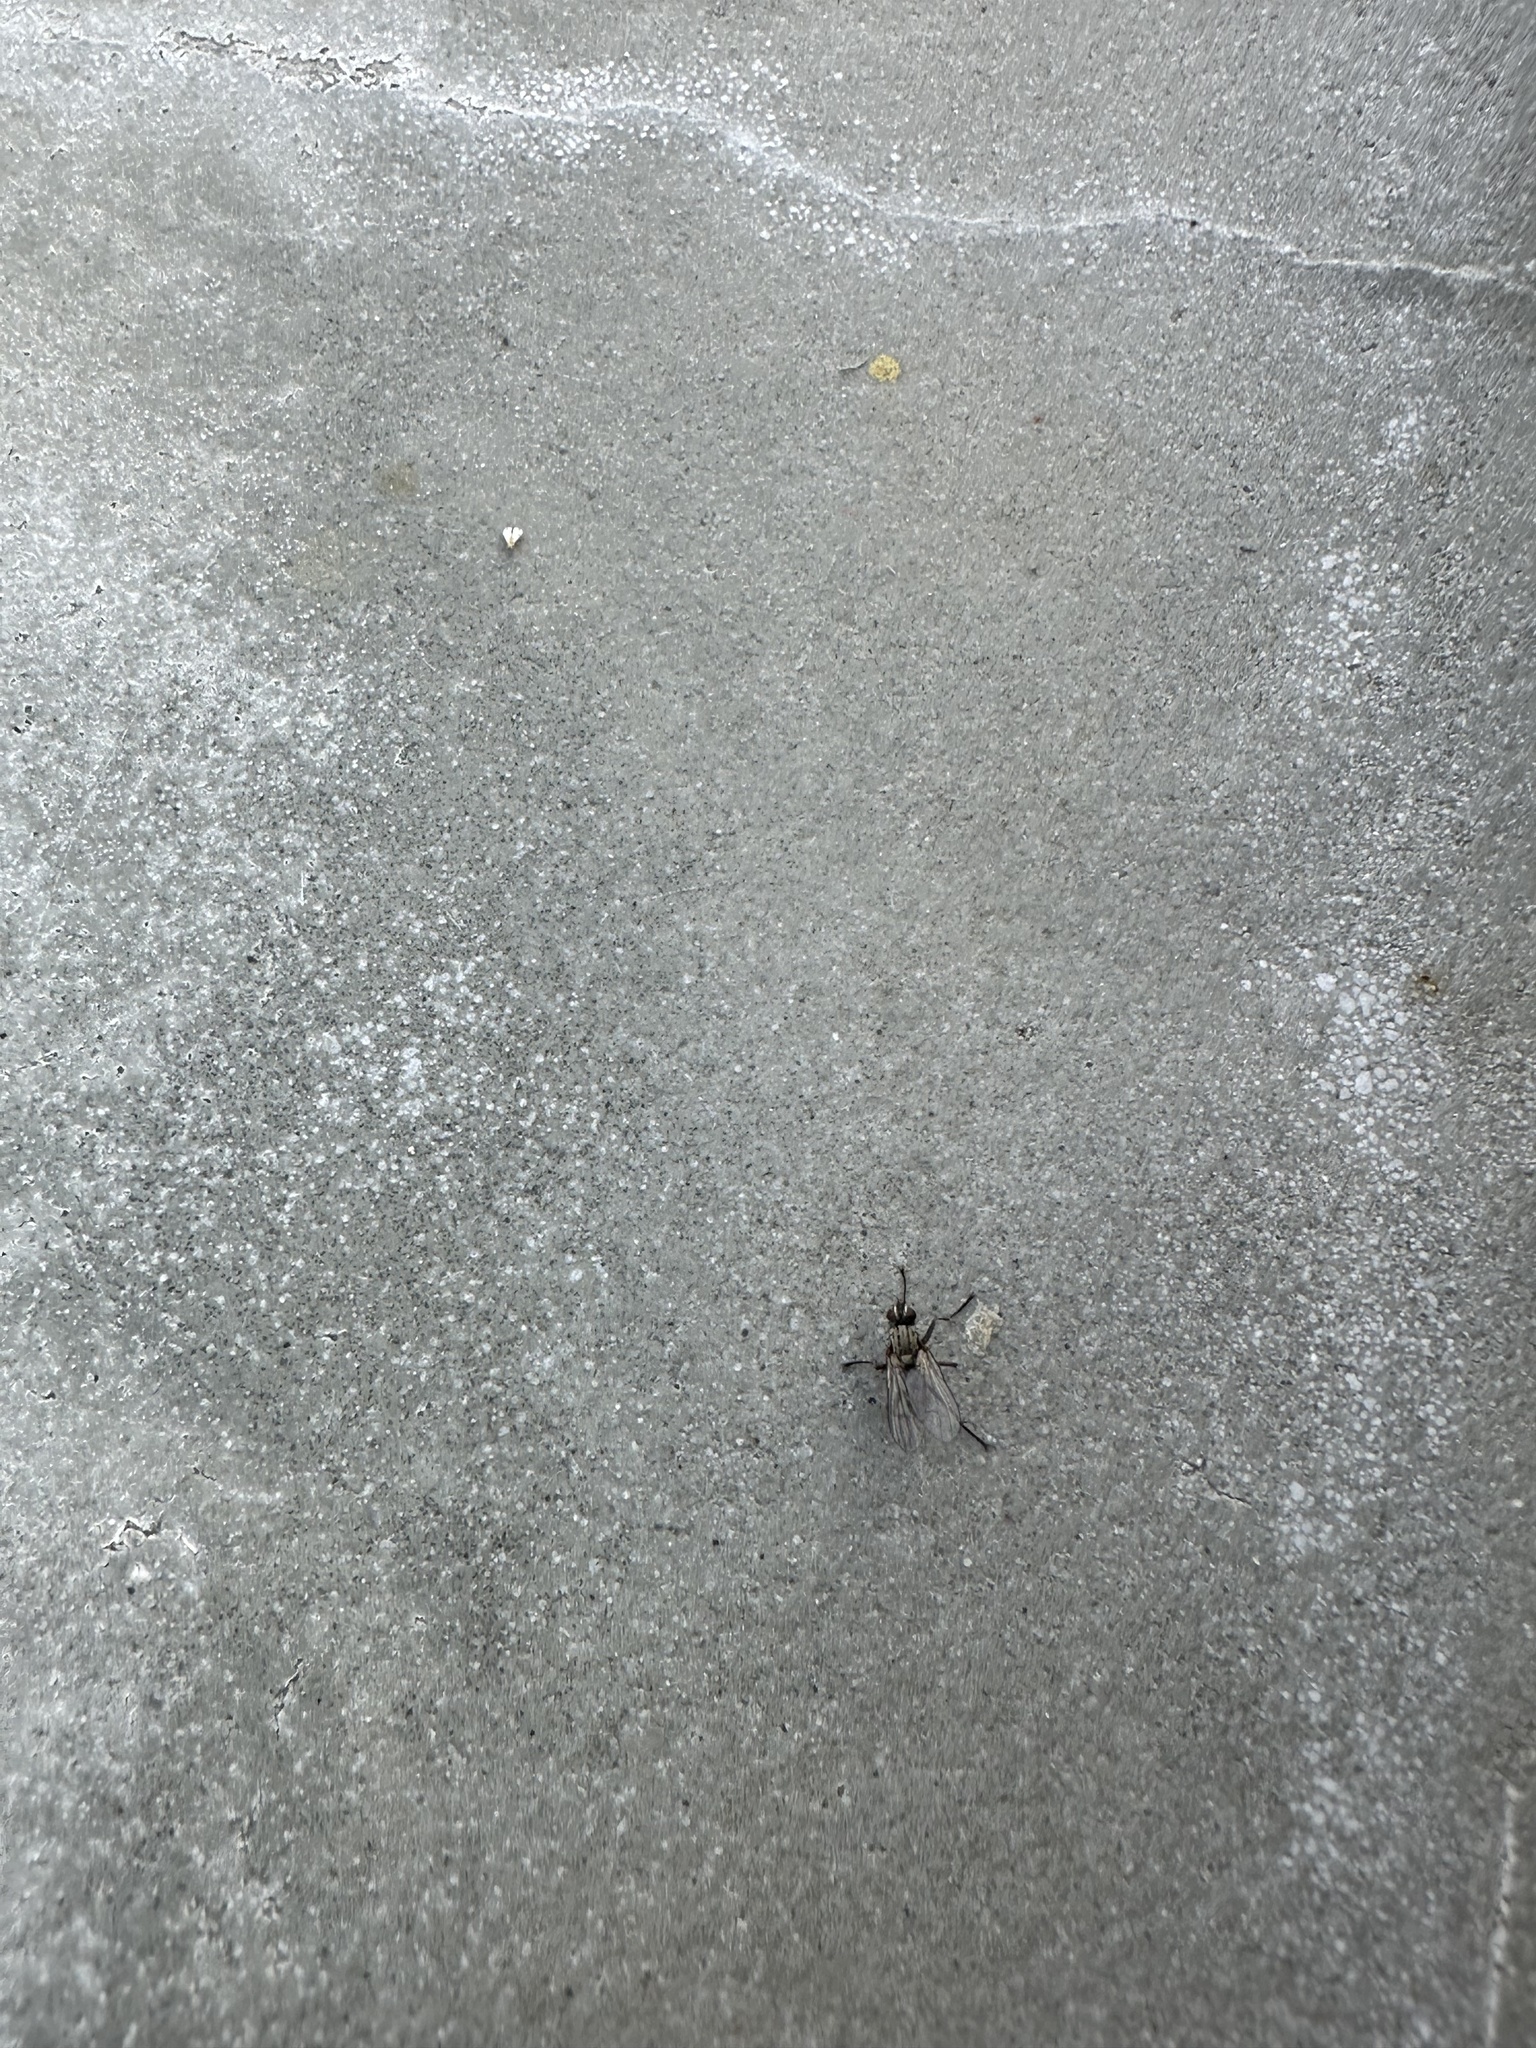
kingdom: Animalia
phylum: Arthropoda
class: Insecta
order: Diptera
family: Muscidae
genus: Coenosia
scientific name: Coenosia tigrina
